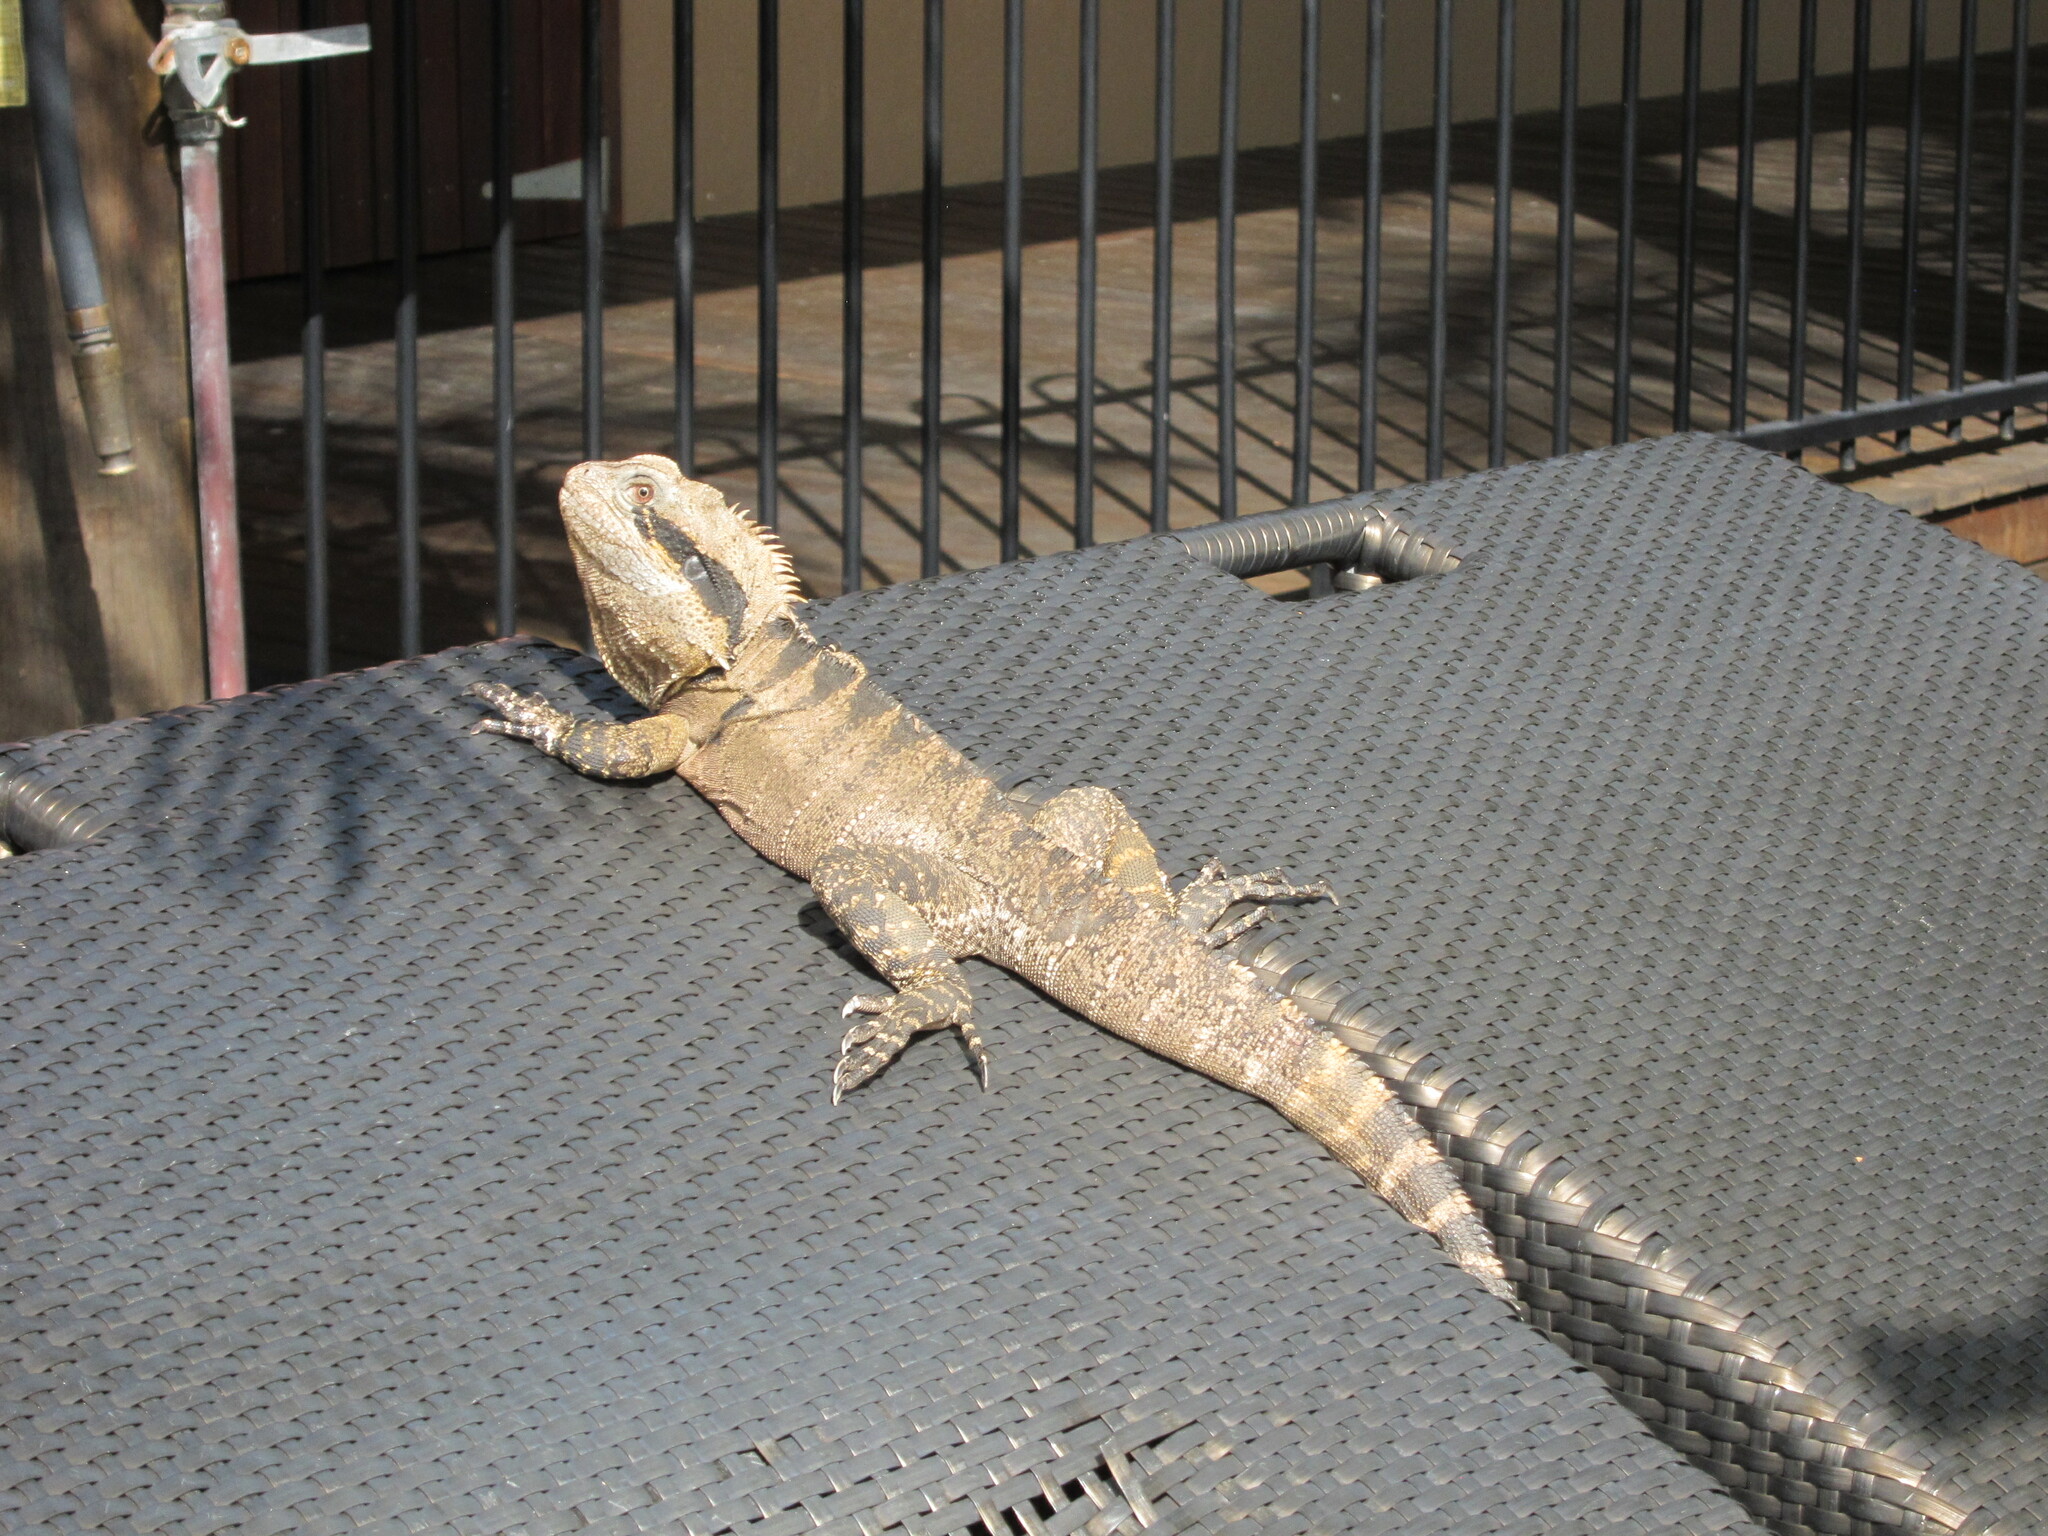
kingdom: Animalia
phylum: Chordata
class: Squamata
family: Agamidae
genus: Intellagama
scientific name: Intellagama lesueurii
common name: Eastern water dragon
